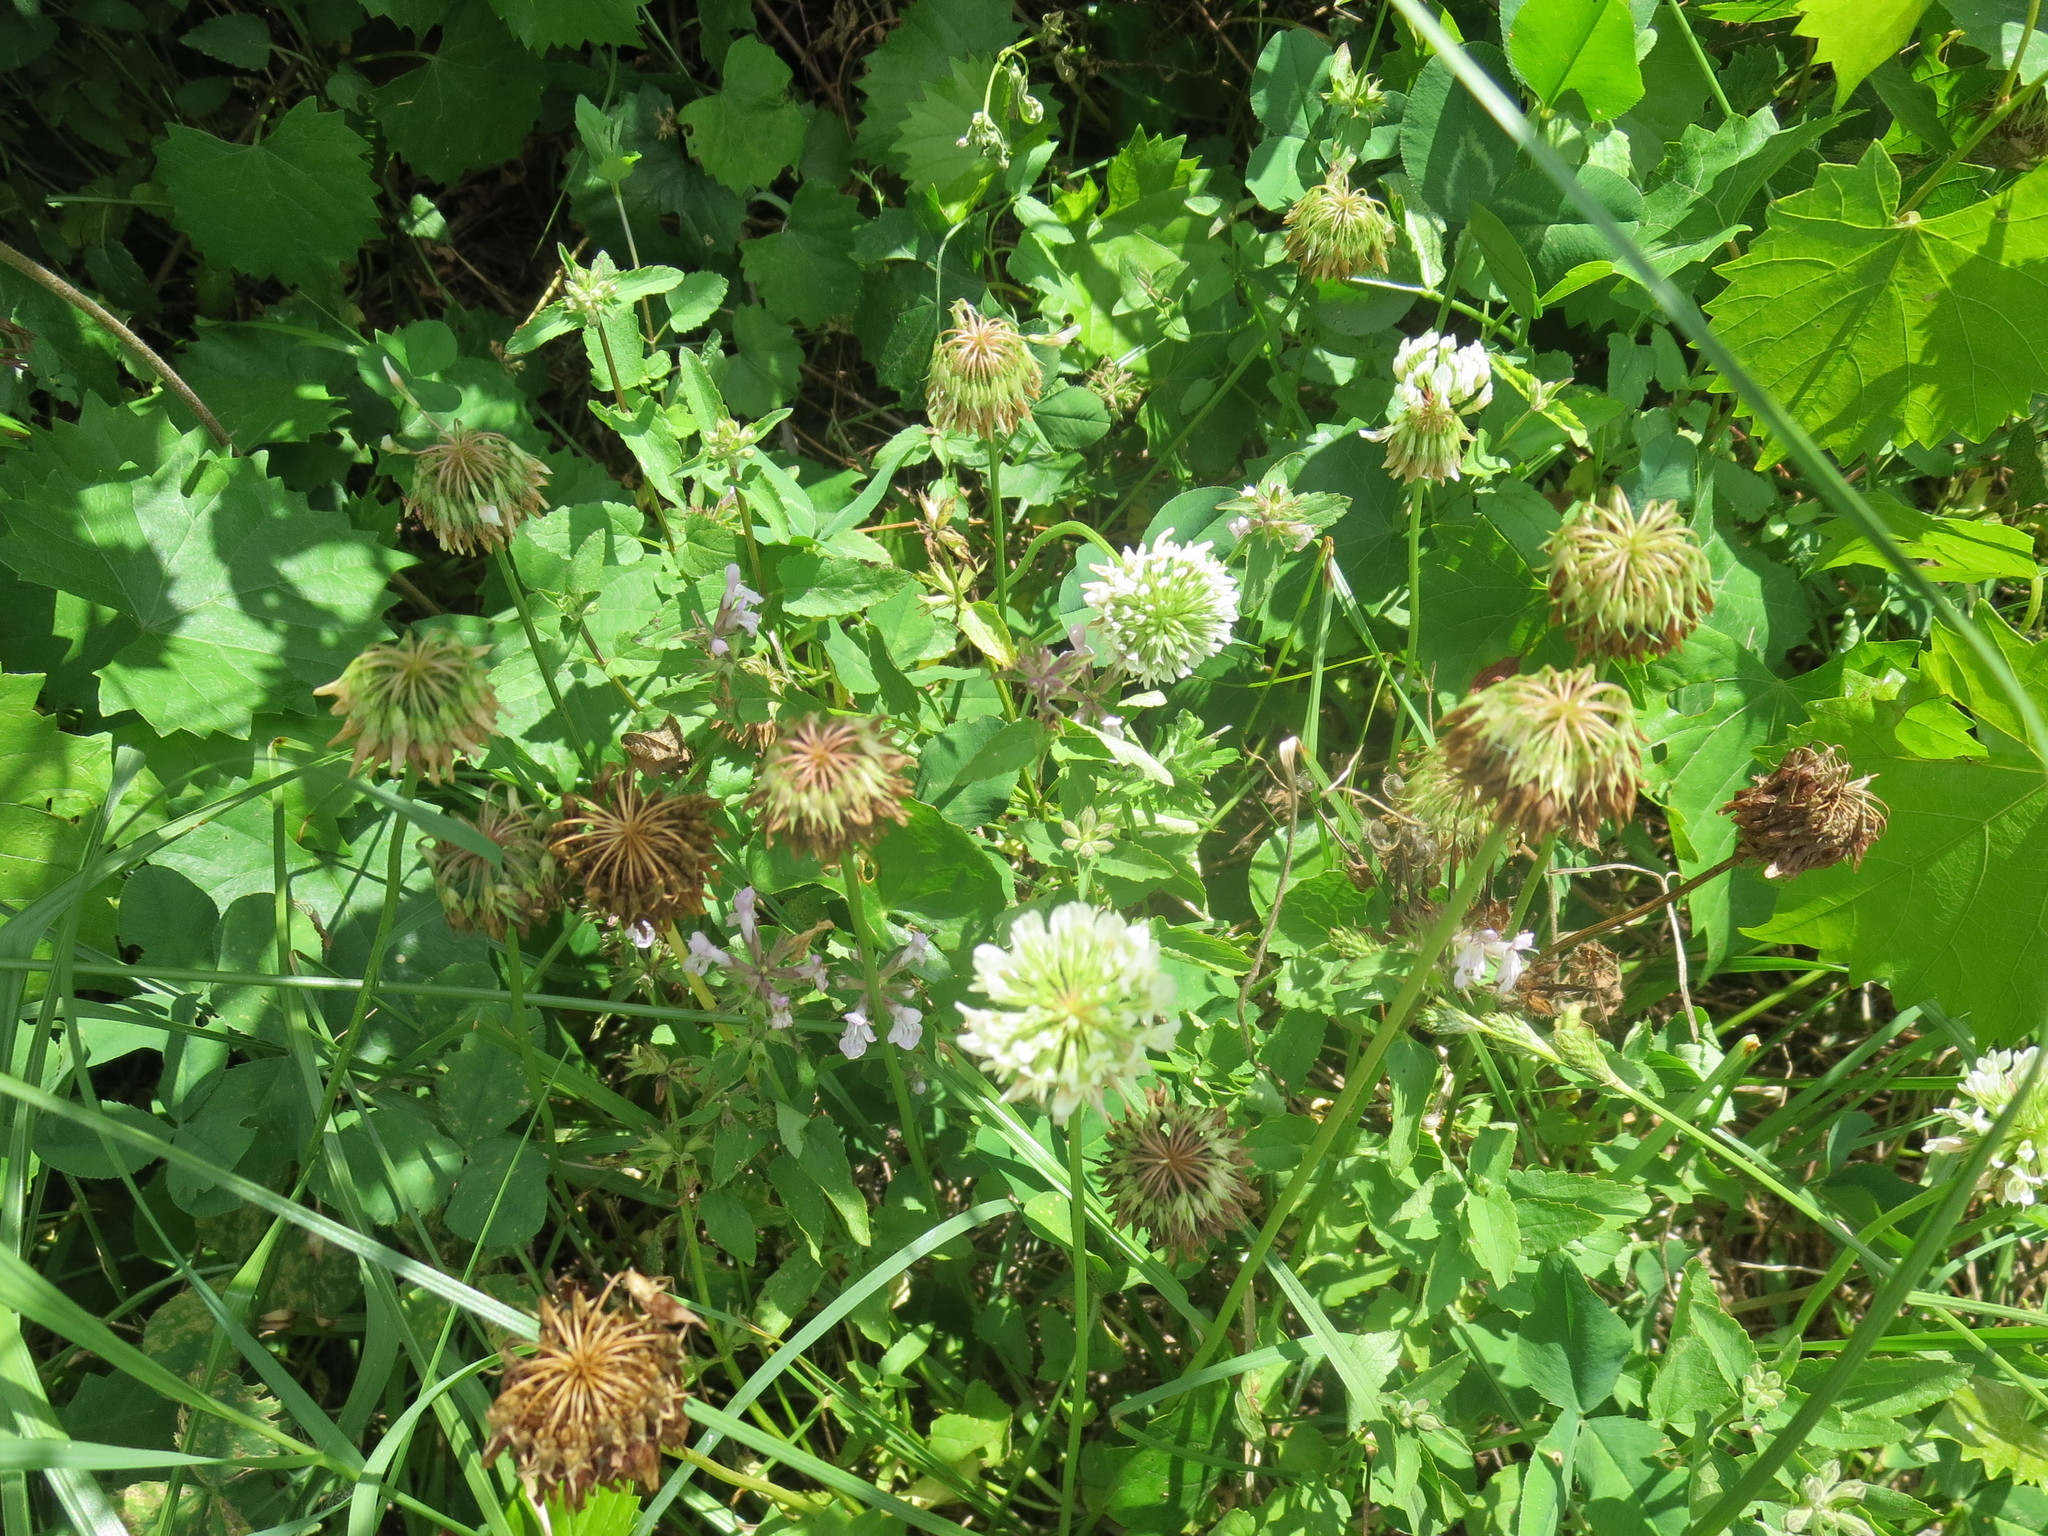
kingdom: Plantae
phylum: Tracheophyta
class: Magnoliopsida
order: Fabales
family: Fabaceae
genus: Trifolium
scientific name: Trifolium repens
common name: White clover
